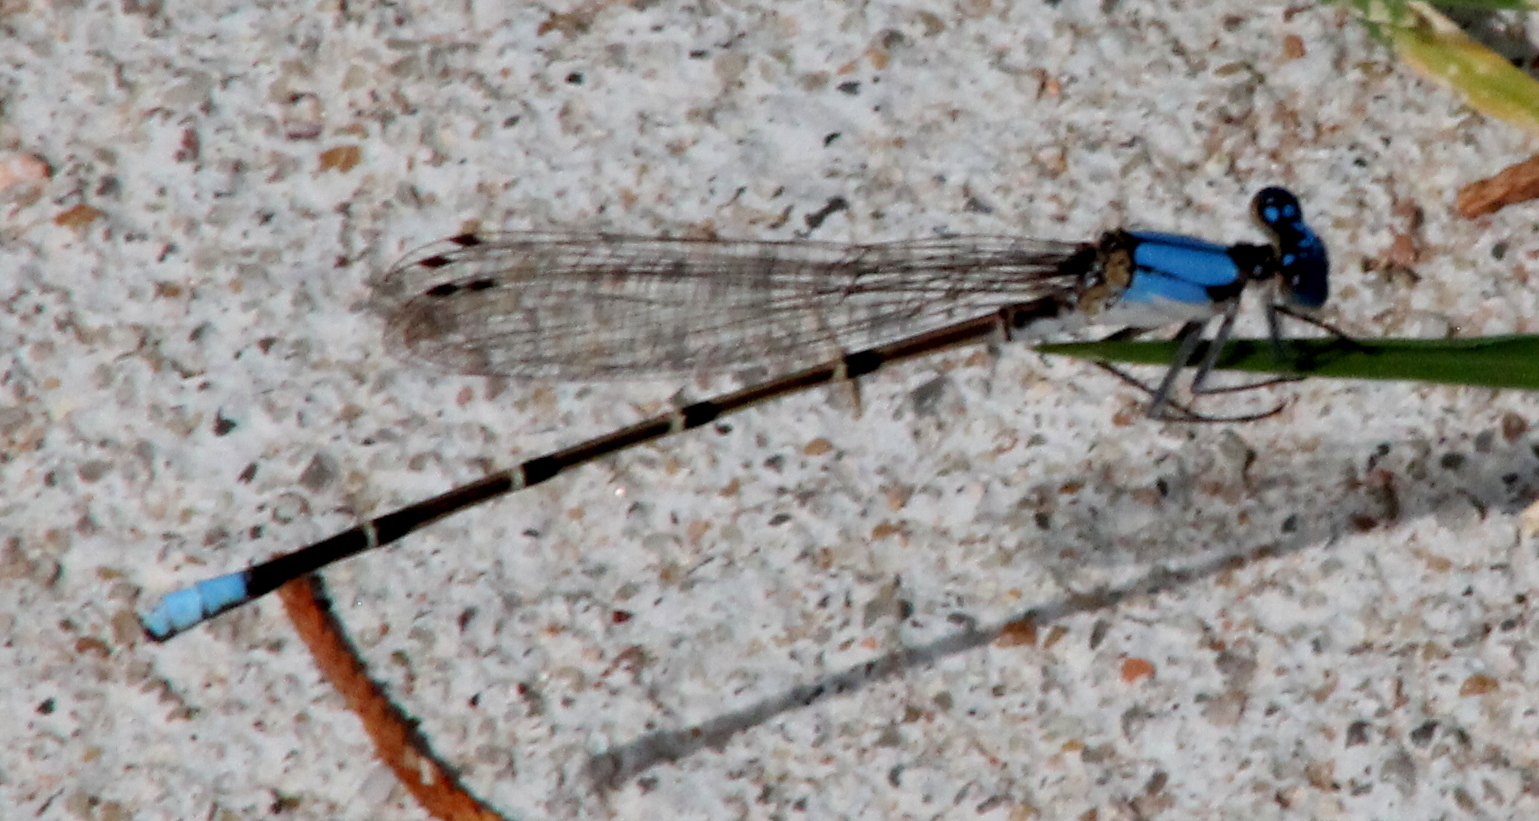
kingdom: Animalia
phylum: Arthropoda
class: Insecta
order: Odonata
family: Coenagrionidae
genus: Argia
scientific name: Argia apicalis
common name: Blue-fronted dancer
